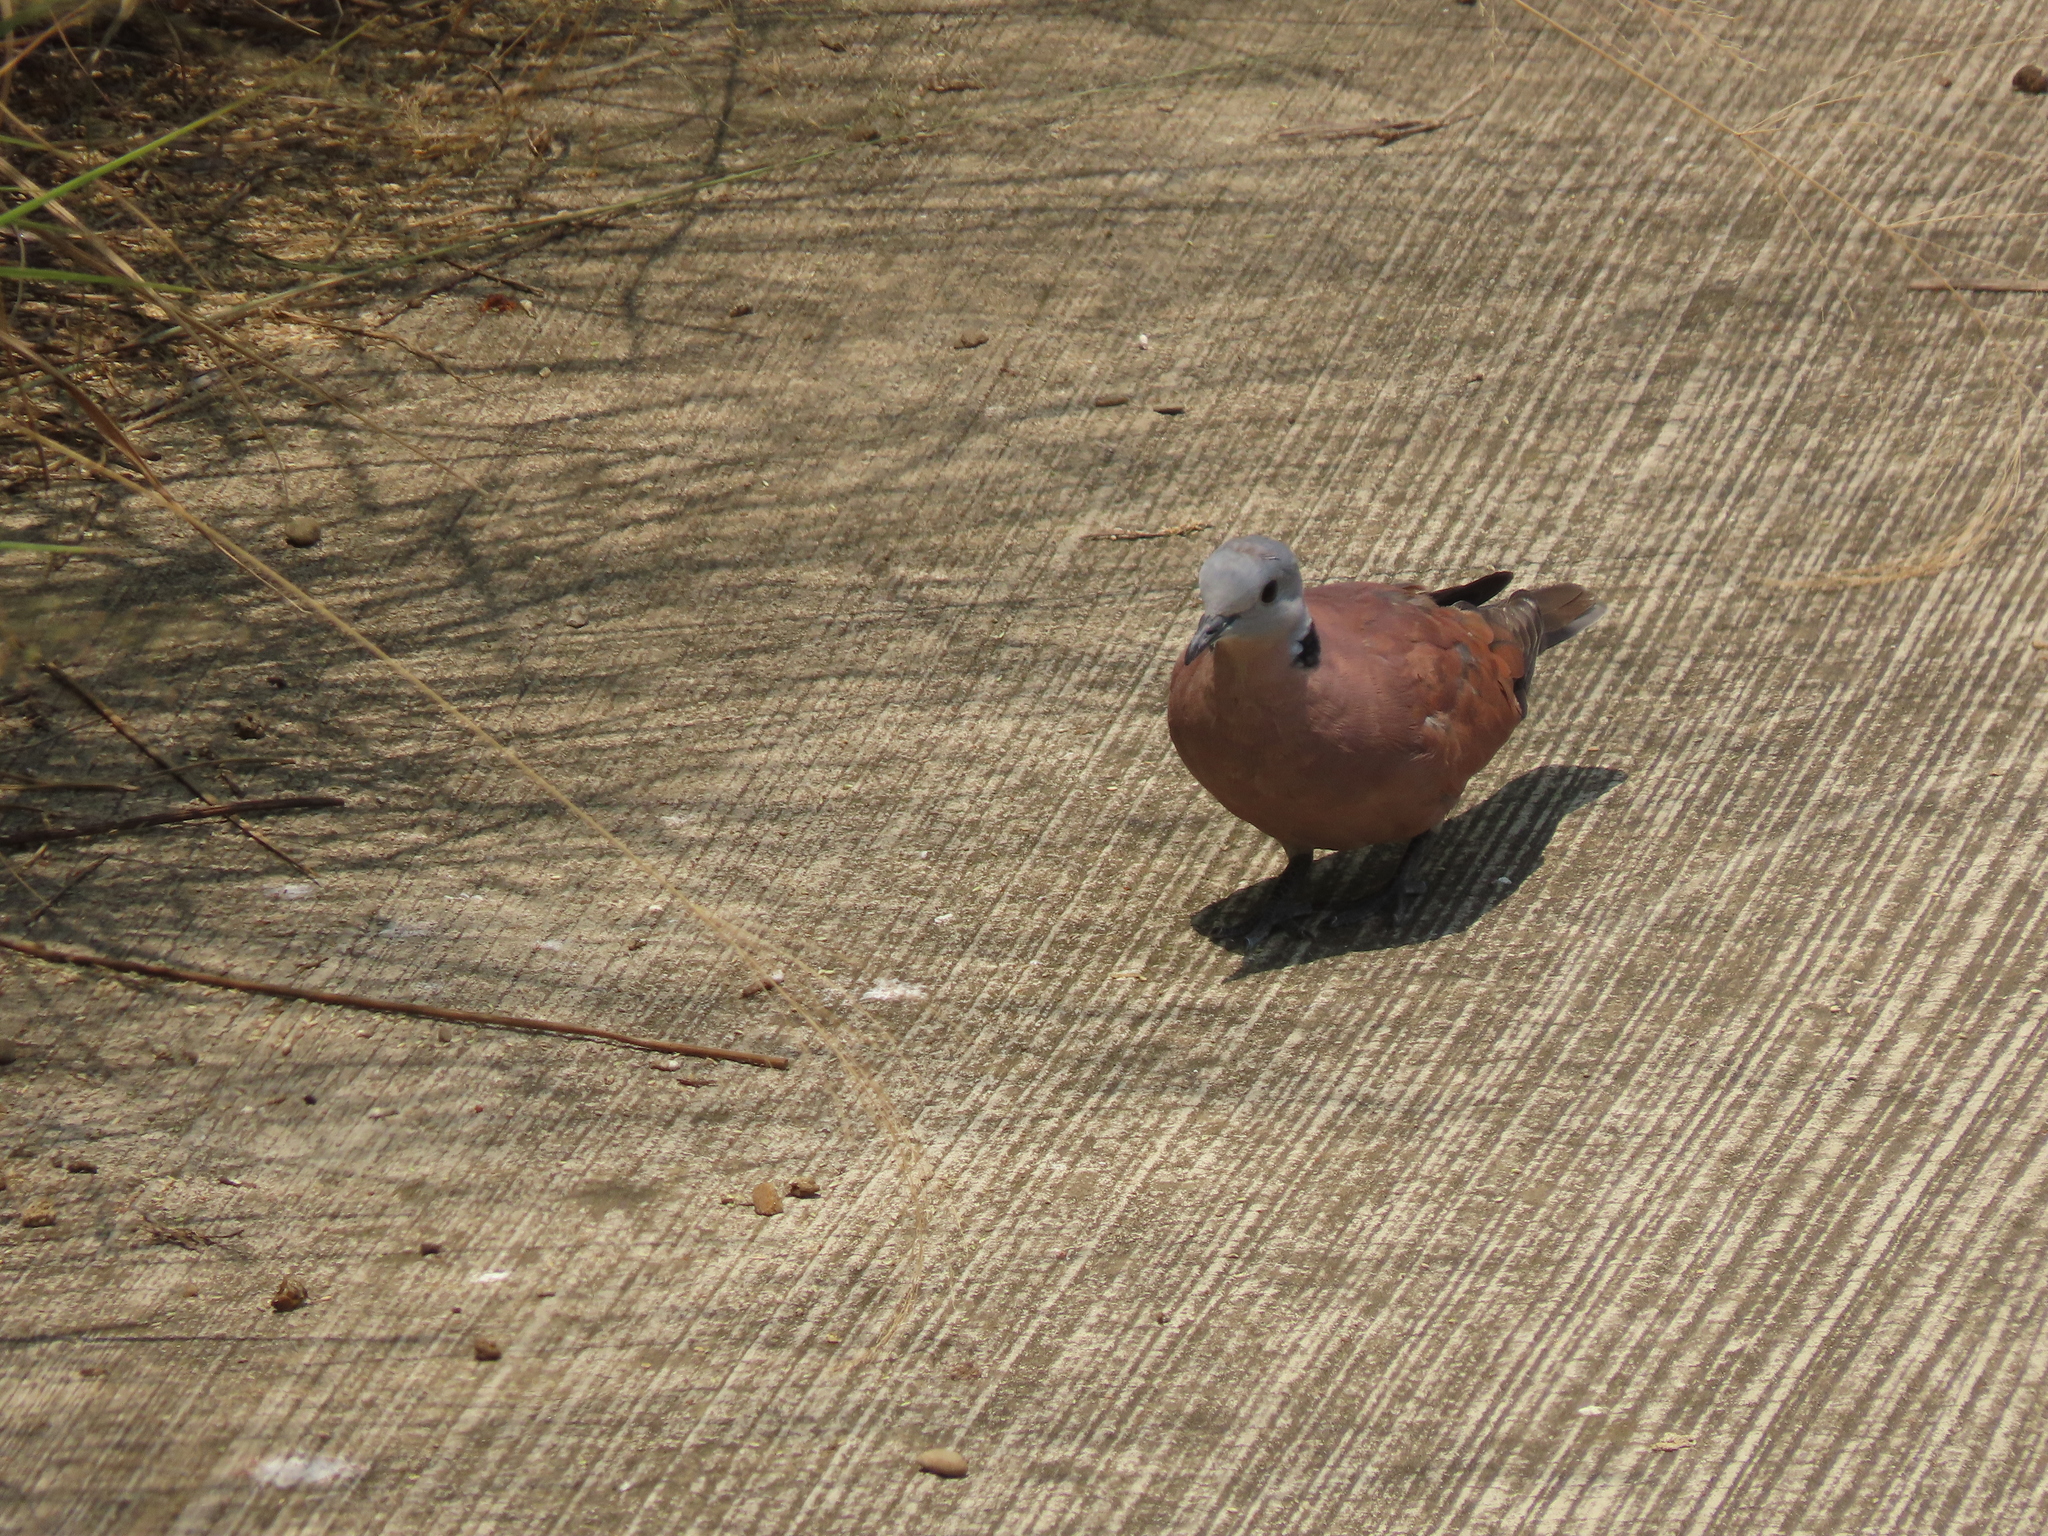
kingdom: Animalia
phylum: Chordata
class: Aves
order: Columbiformes
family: Columbidae
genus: Streptopelia
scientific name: Streptopelia tranquebarica
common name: Red turtle dove
